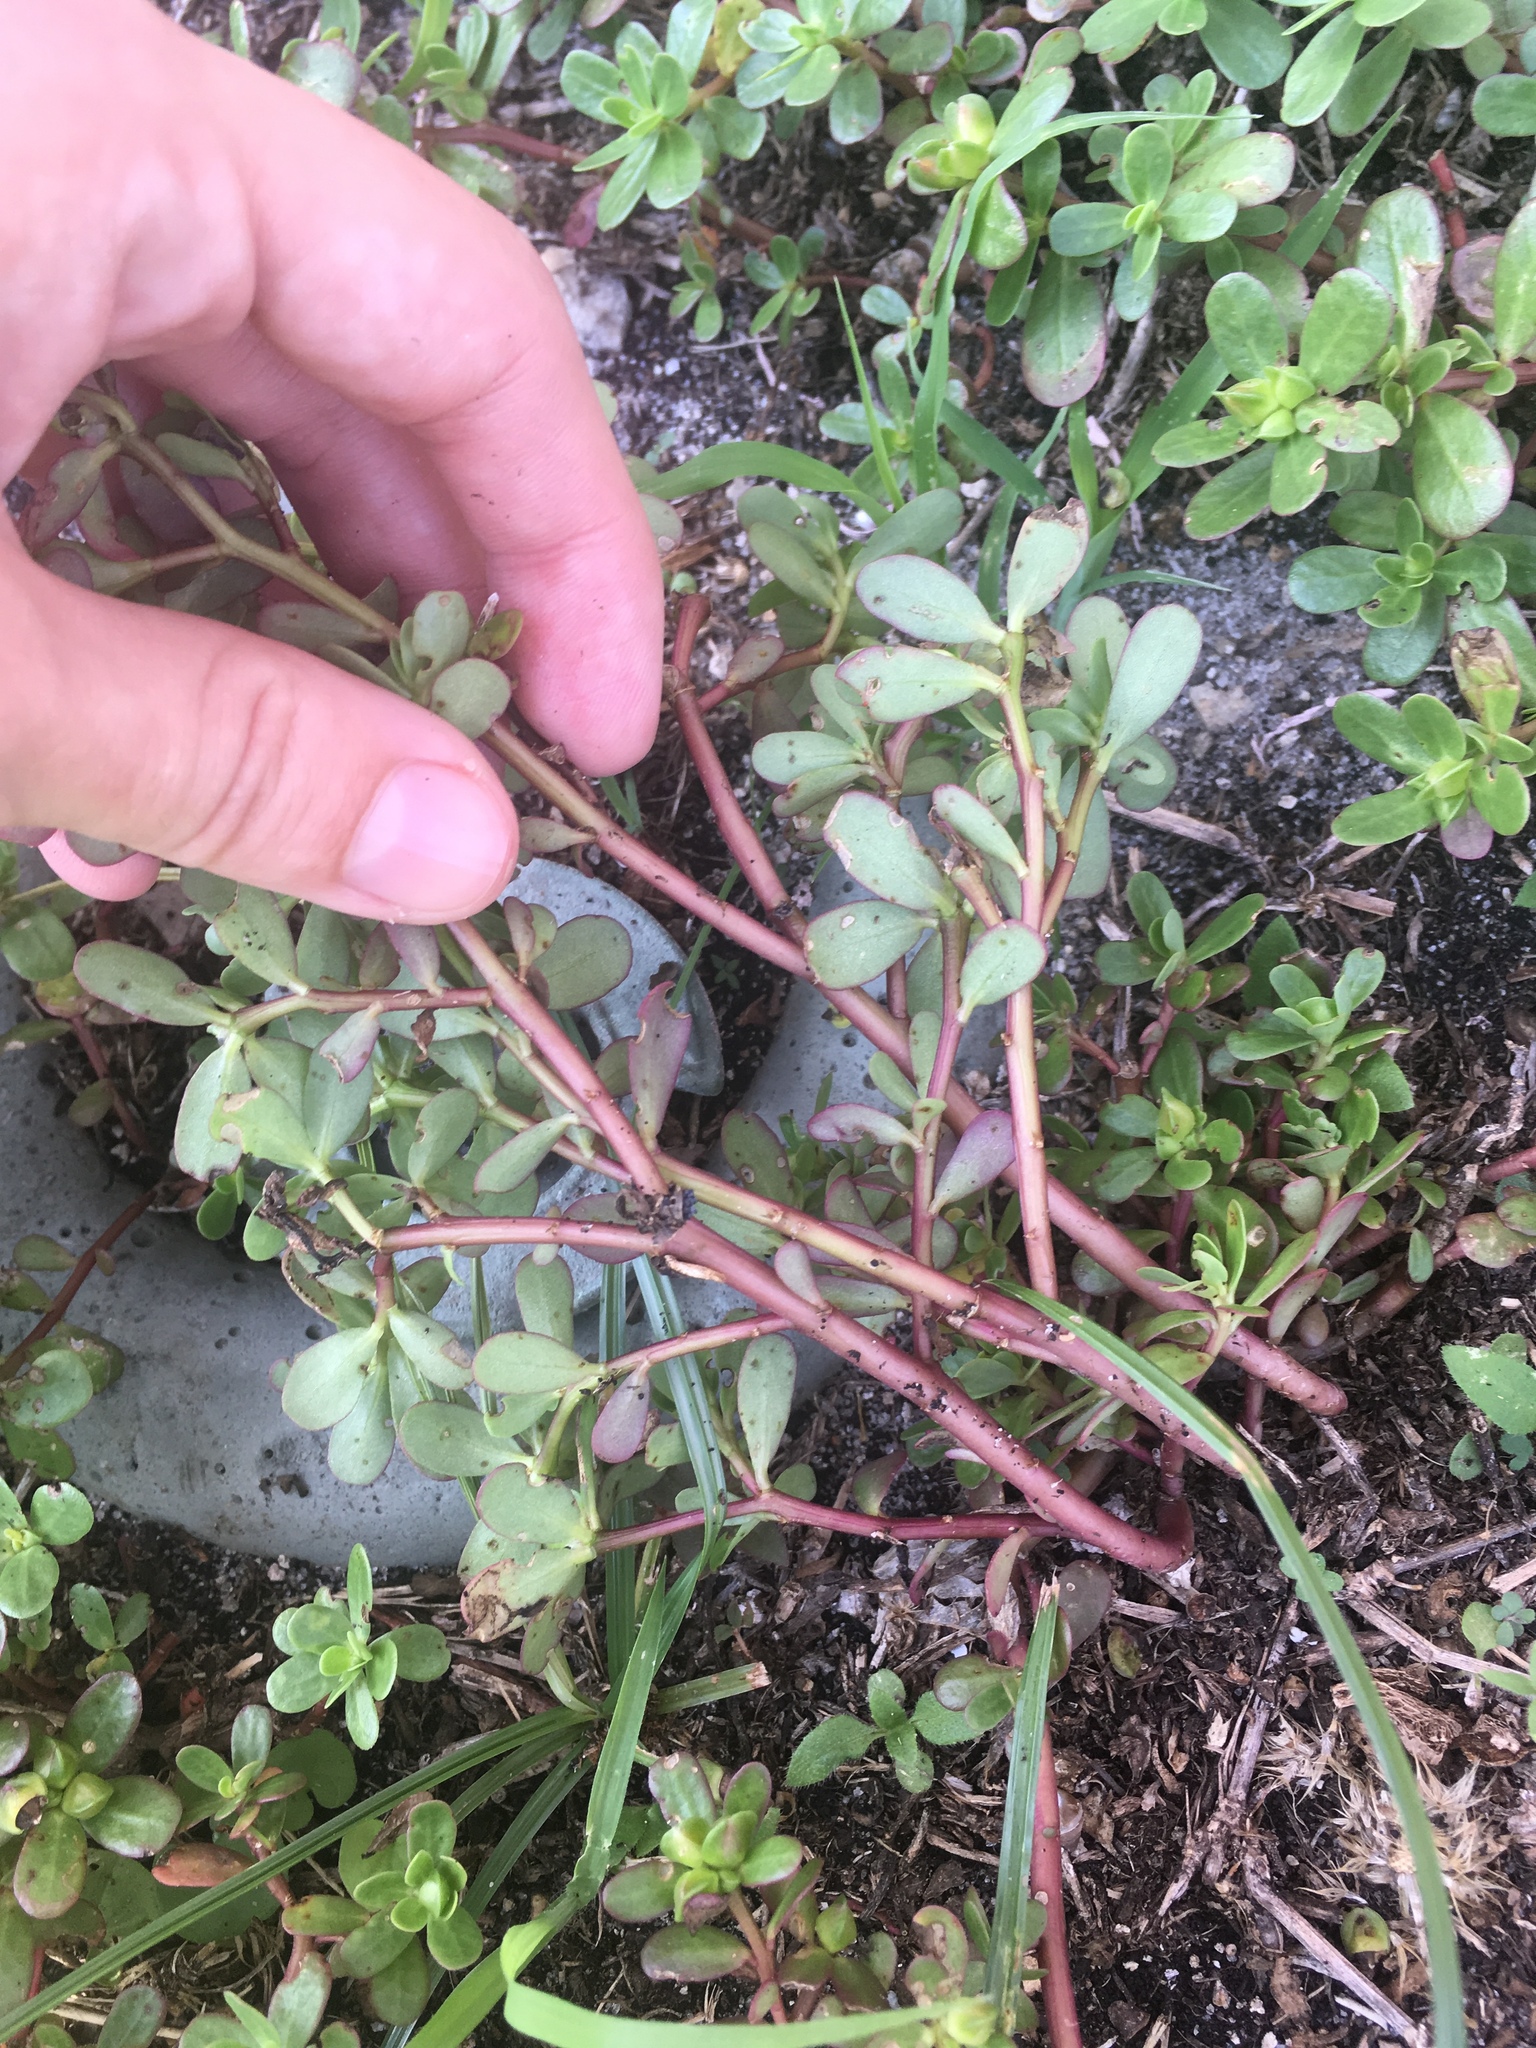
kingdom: Plantae
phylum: Tracheophyta
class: Magnoliopsida
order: Caryophyllales
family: Portulacaceae
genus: Portulaca
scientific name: Portulaca oleracea
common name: Common purslane
